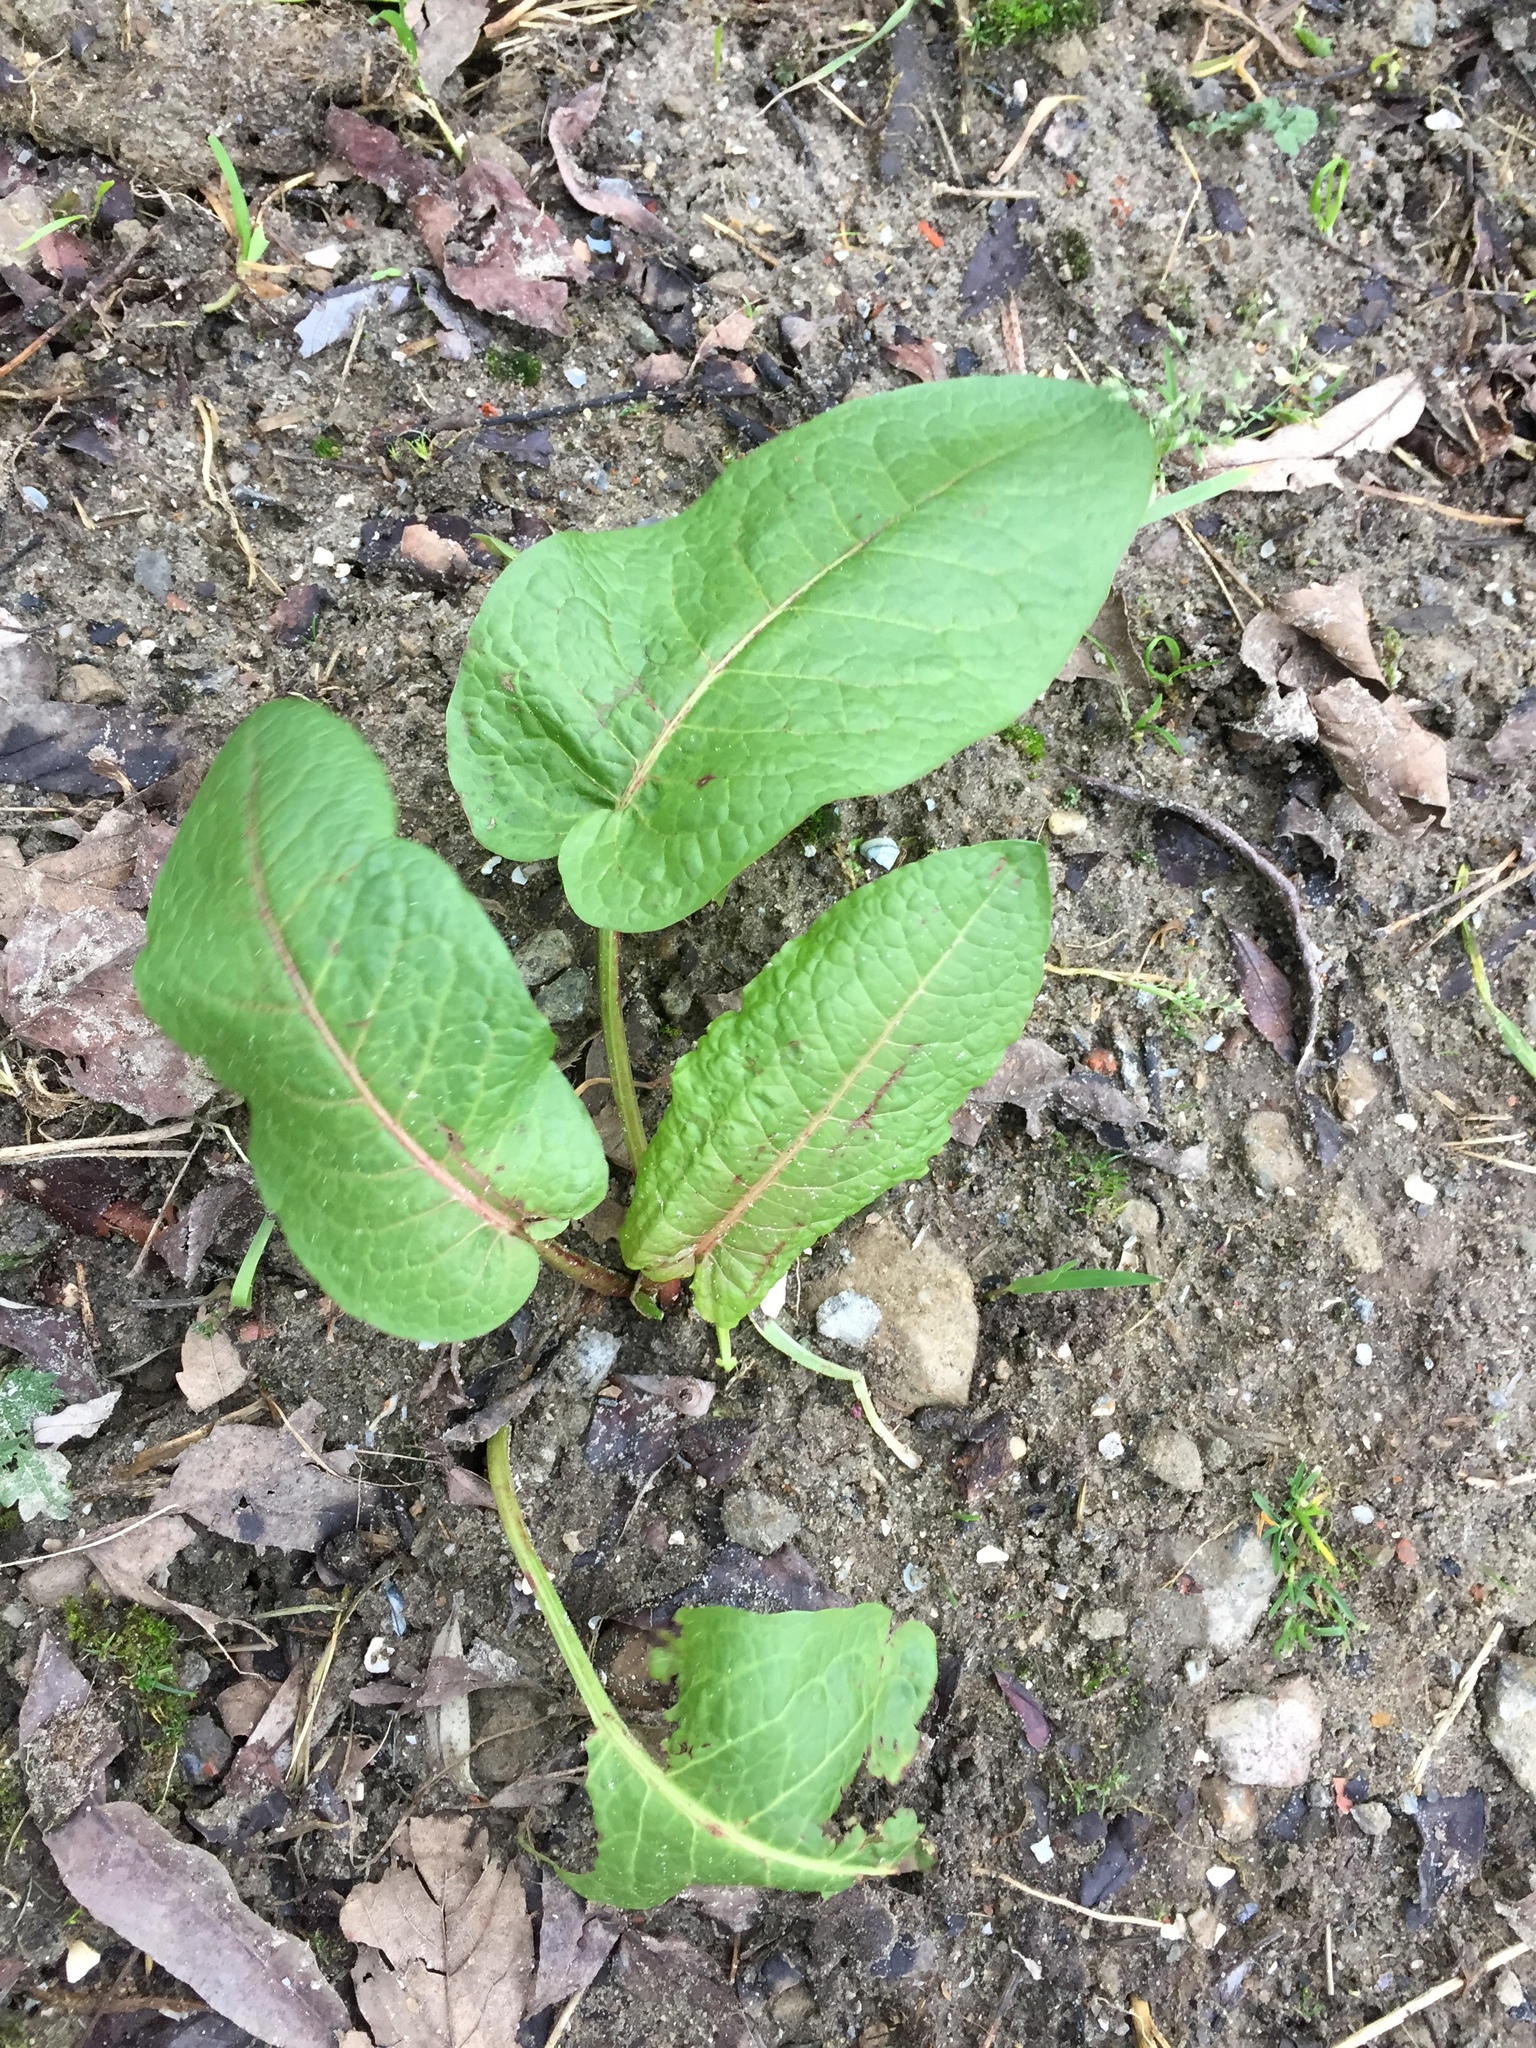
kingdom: Plantae
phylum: Tracheophyta
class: Magnoliopsida
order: Caryophyllales
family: Polygonaceae
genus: Rumex
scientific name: Rumex obtusifolius
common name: Bitter dock
